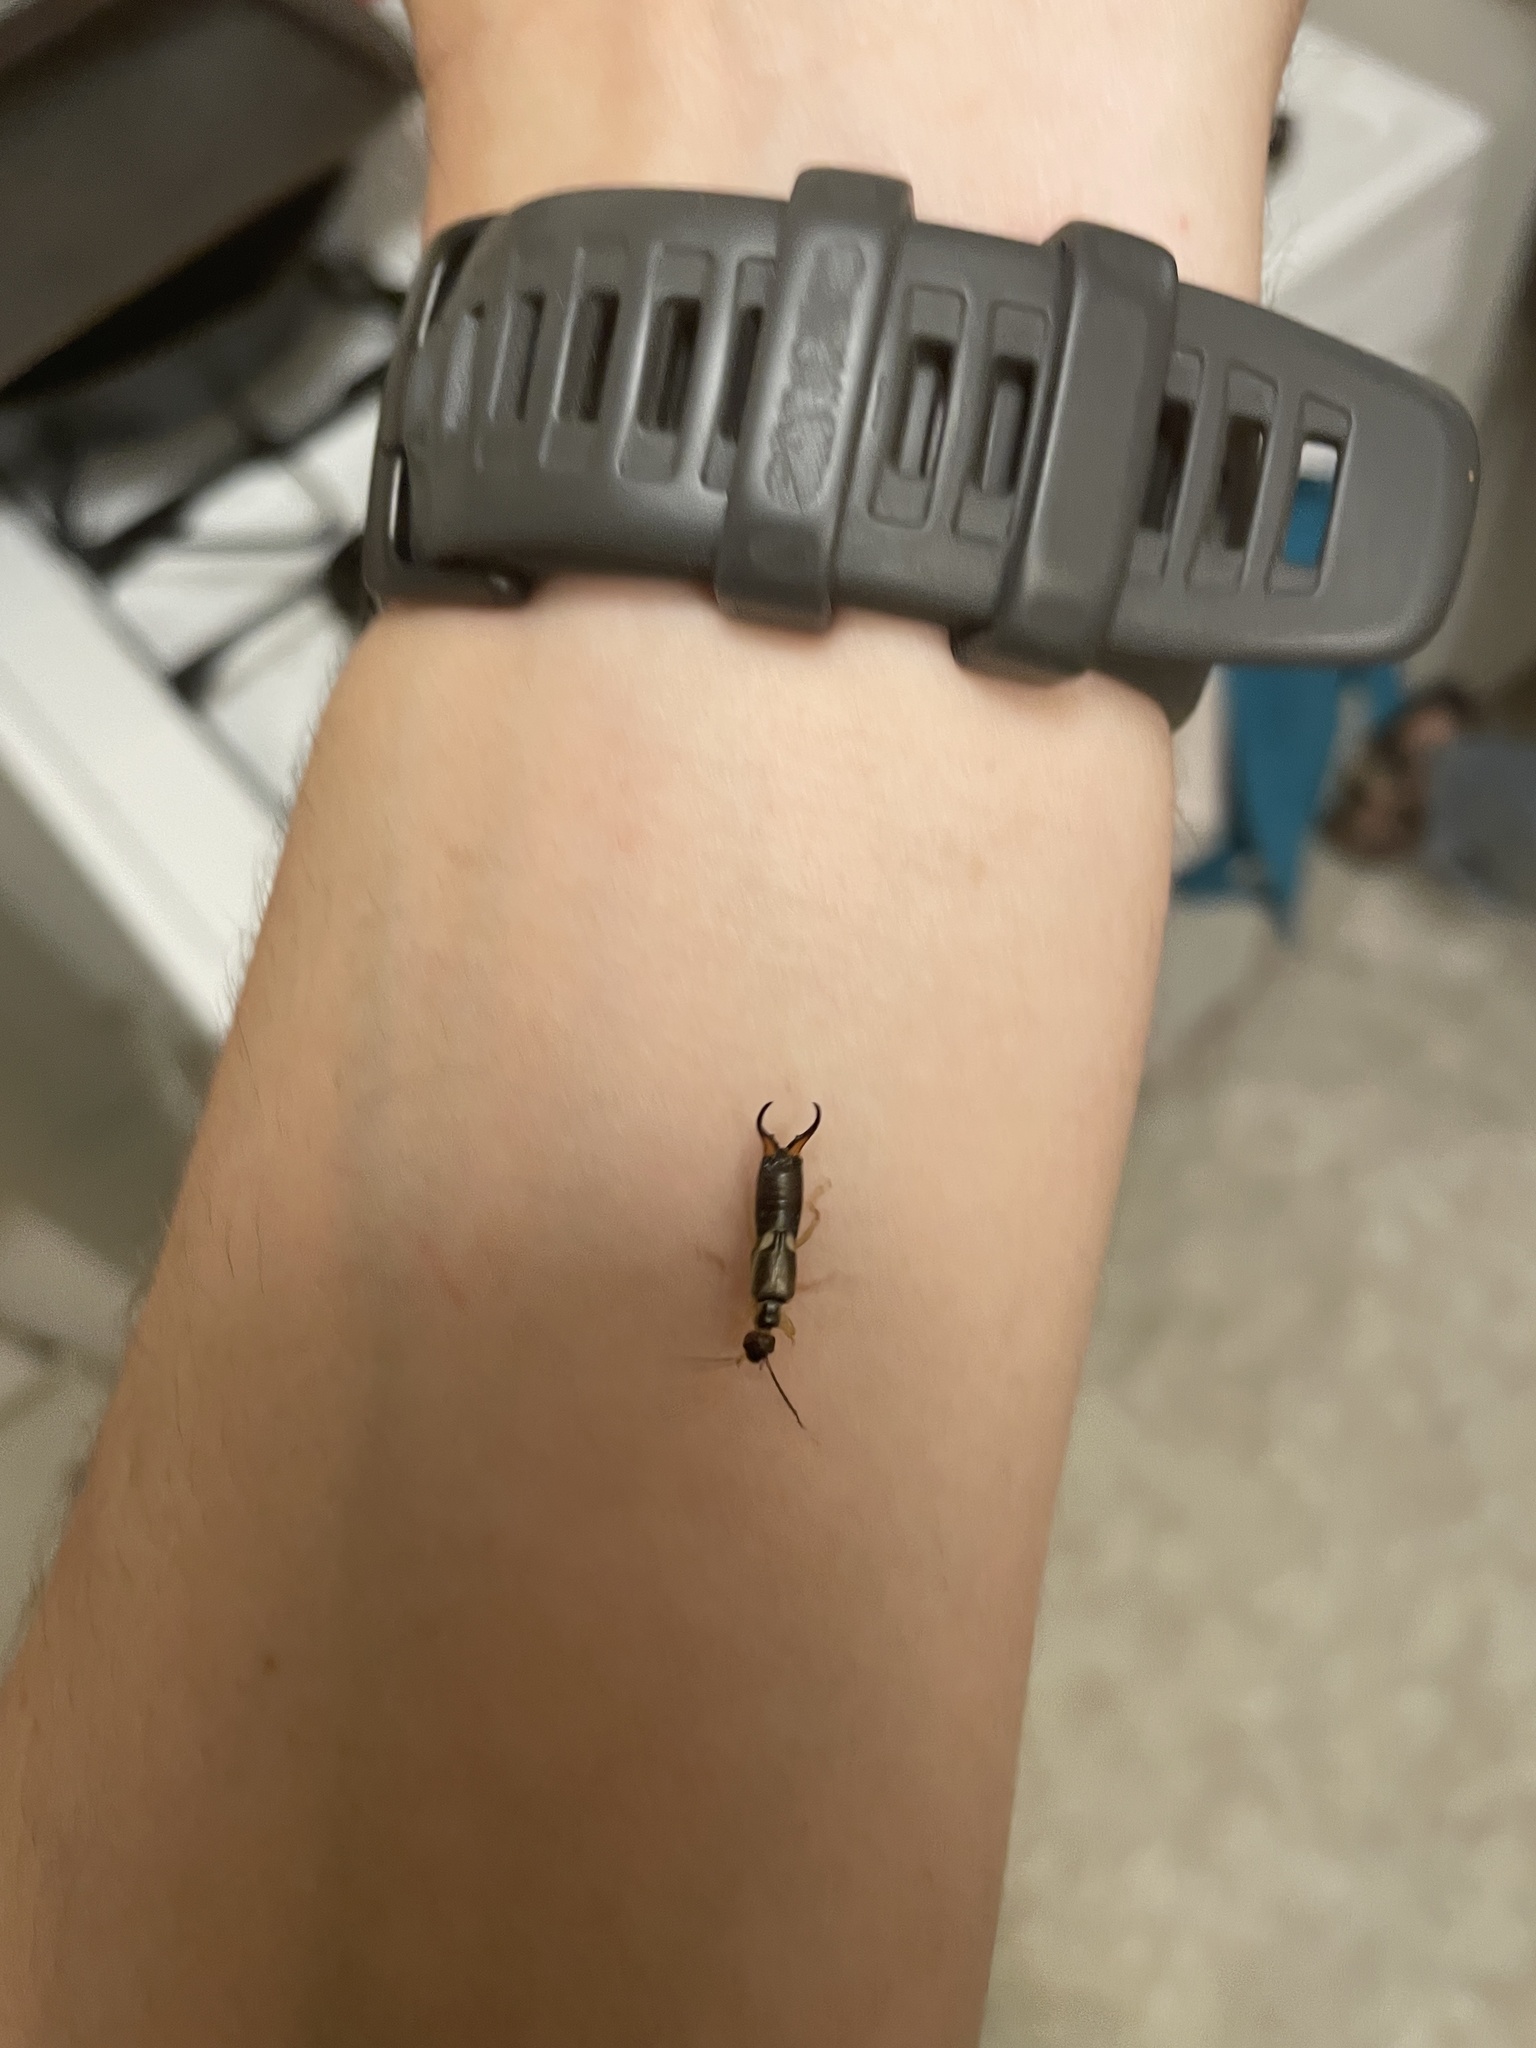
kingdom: Animalia
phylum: Arthropoda
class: Insecta
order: Dermaptera
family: Forficulidae
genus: Forficula
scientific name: Forficula
